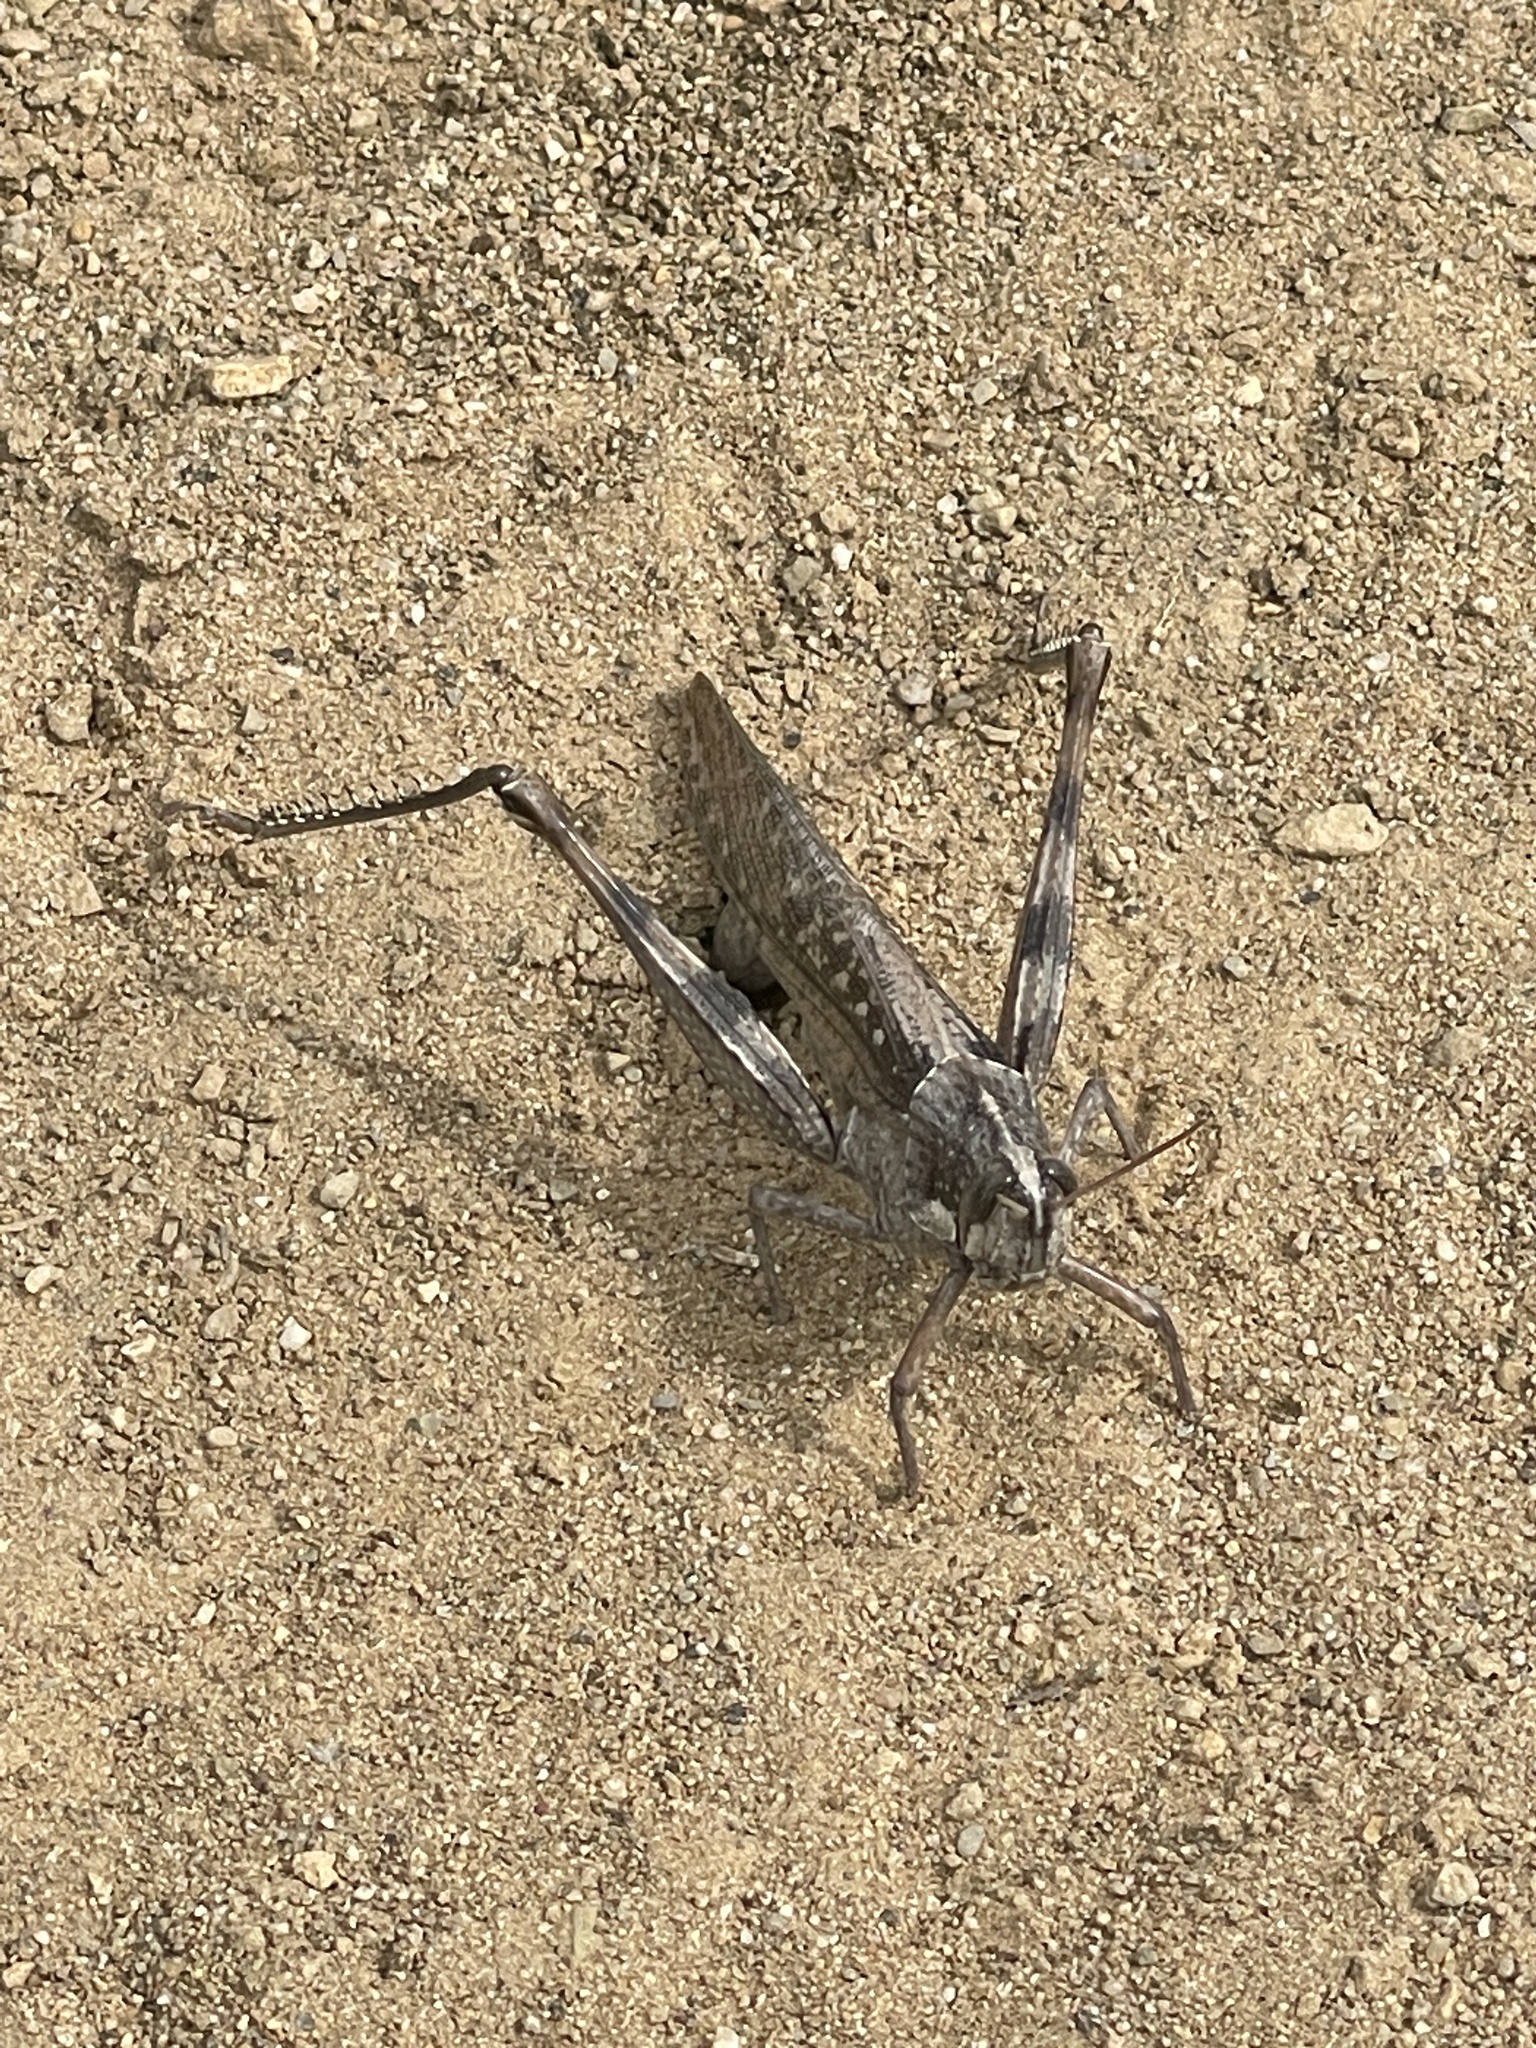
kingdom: Animalia
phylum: Arthropoda
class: Insecta
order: Orthoptera
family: Acrididae
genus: Schistocerca
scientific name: Schistocerca nitens
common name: Vagrant grasshopper
